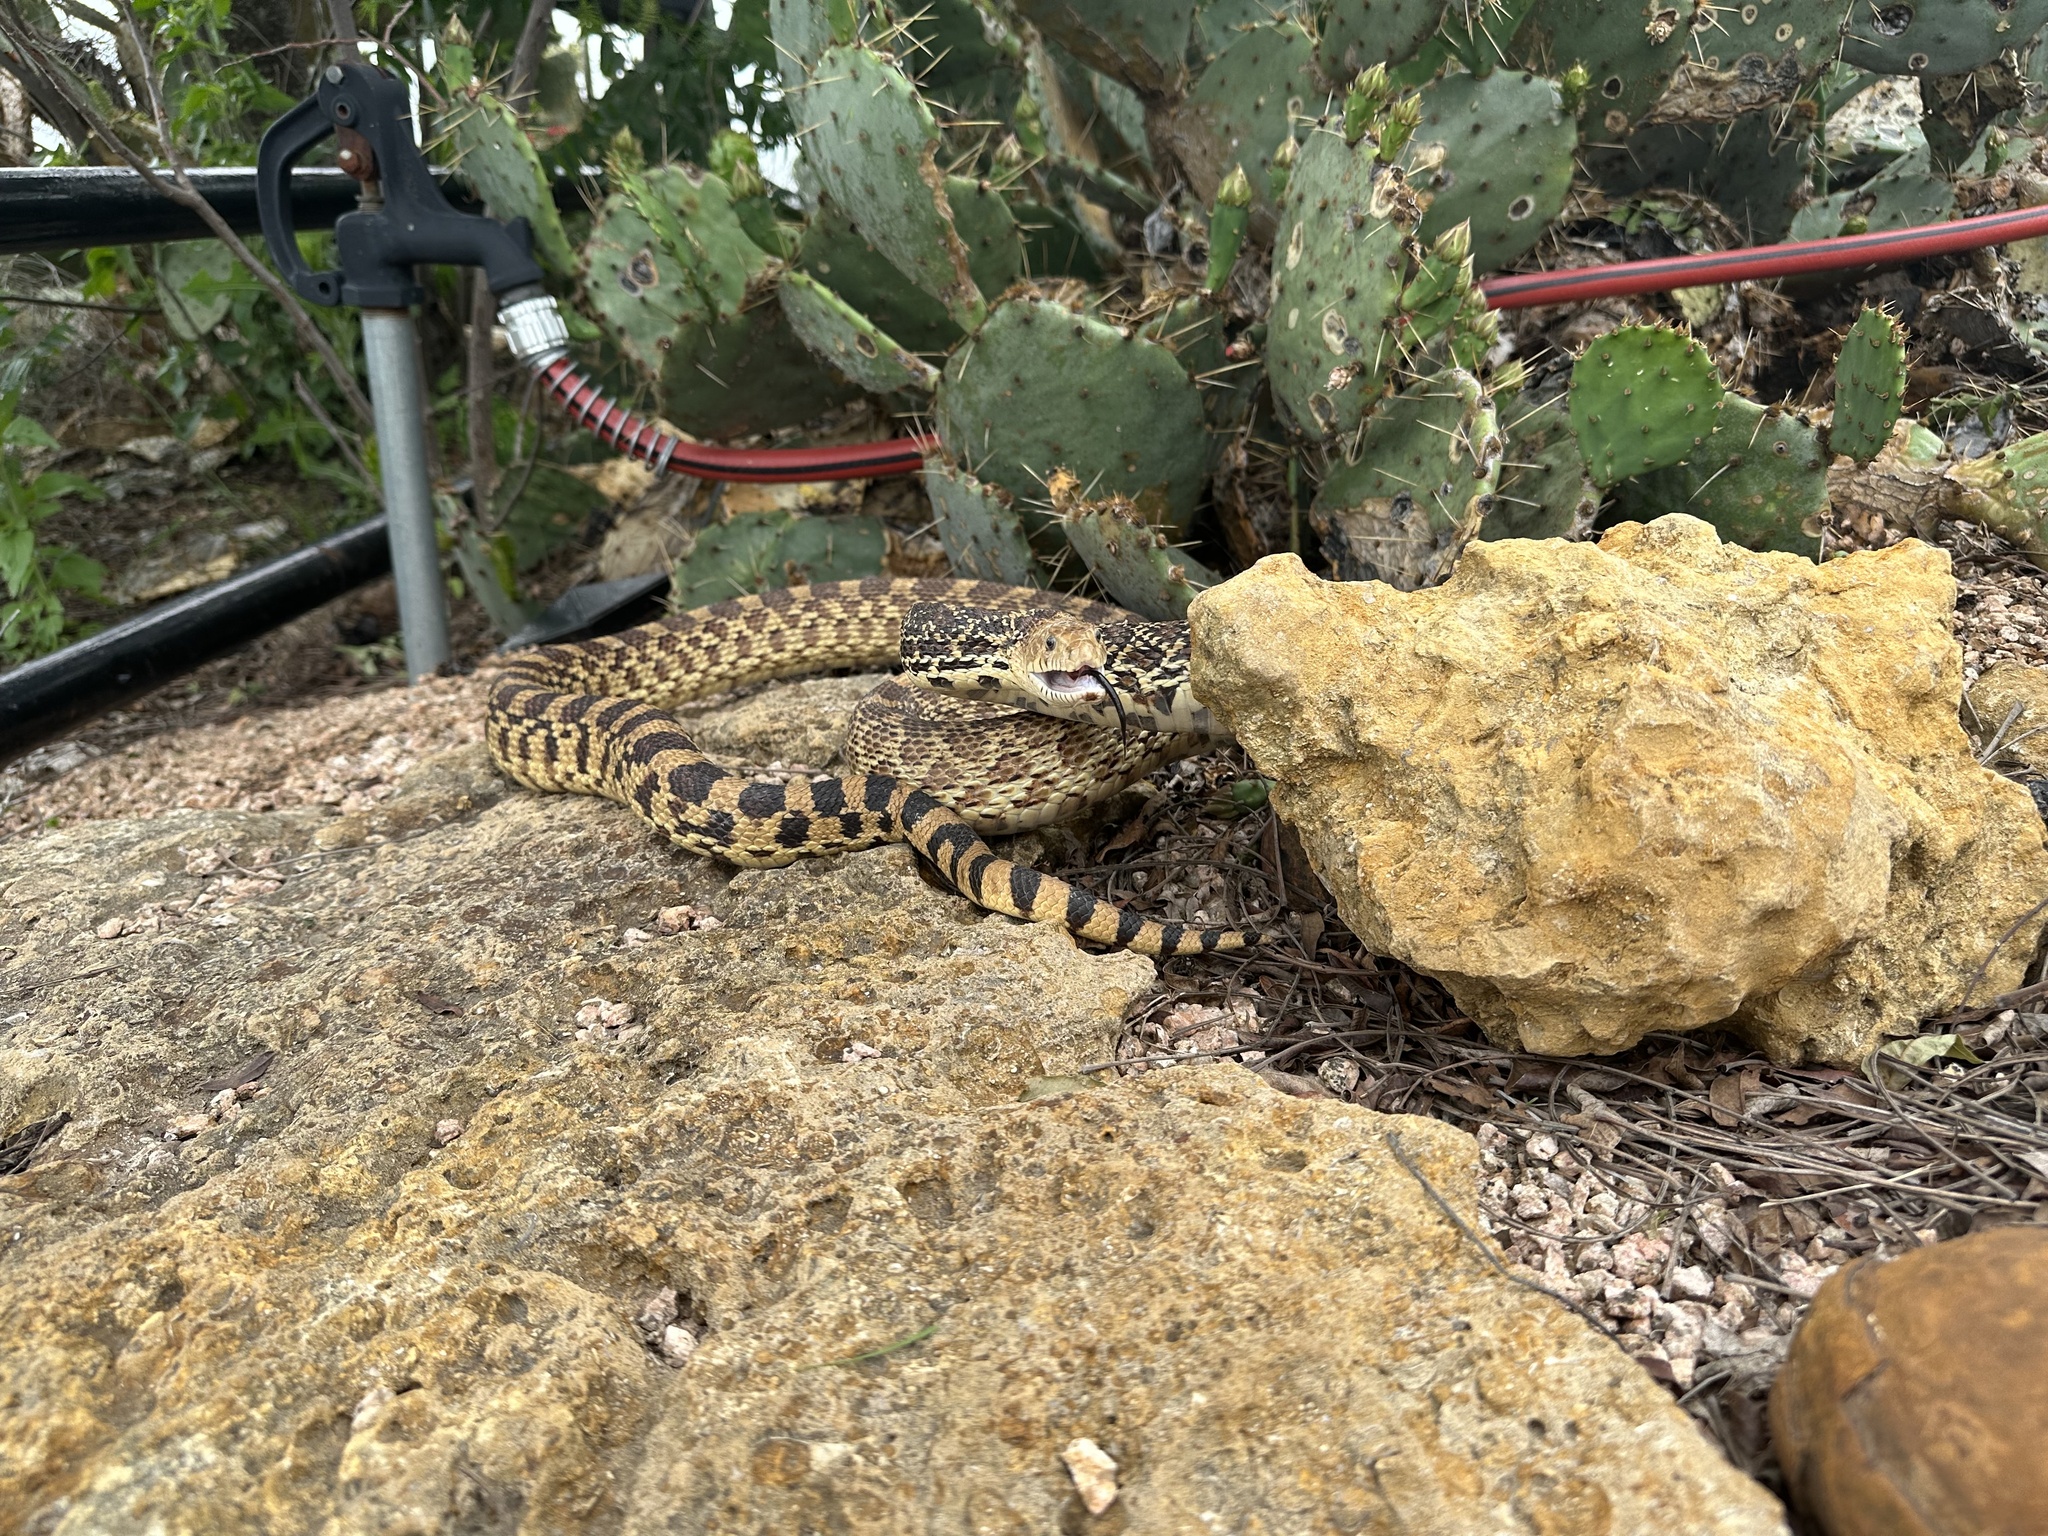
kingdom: Animalia
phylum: Chordata
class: Squamata
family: Colubridae
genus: Pituophis
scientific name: Pituophis catenifer
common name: Gopher snake
